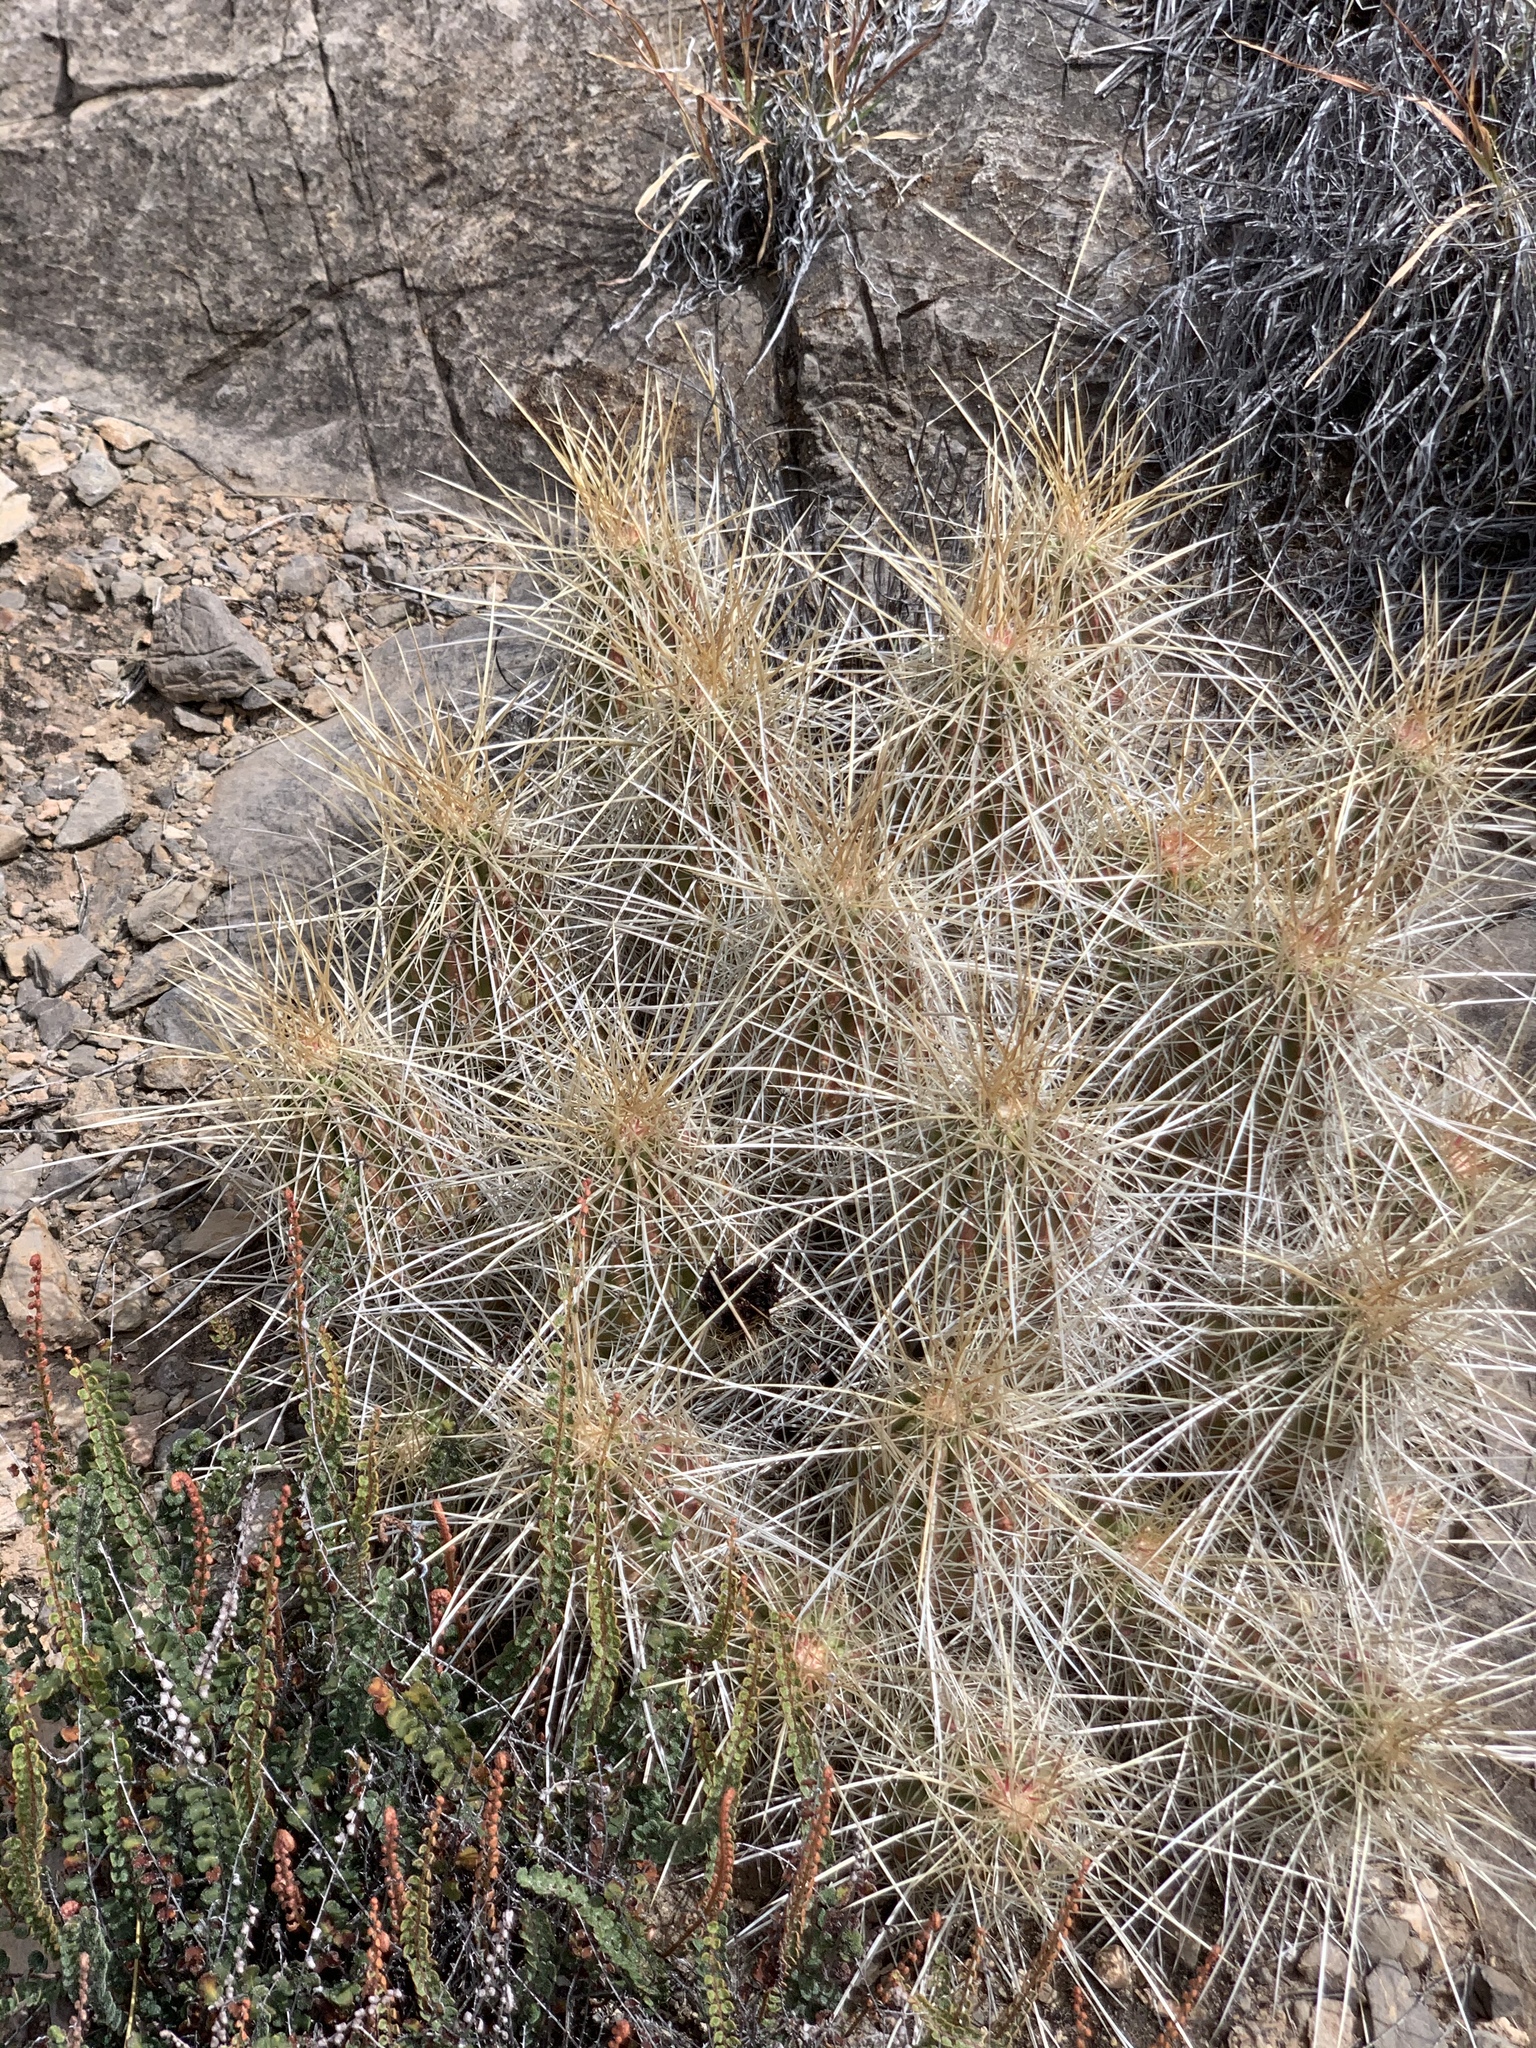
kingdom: Plantae
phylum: Tracheophyta
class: Magnoliopsida
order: Caryophyllales
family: Cactaceae
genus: Echinocereus
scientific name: Echinocereus stramineus
